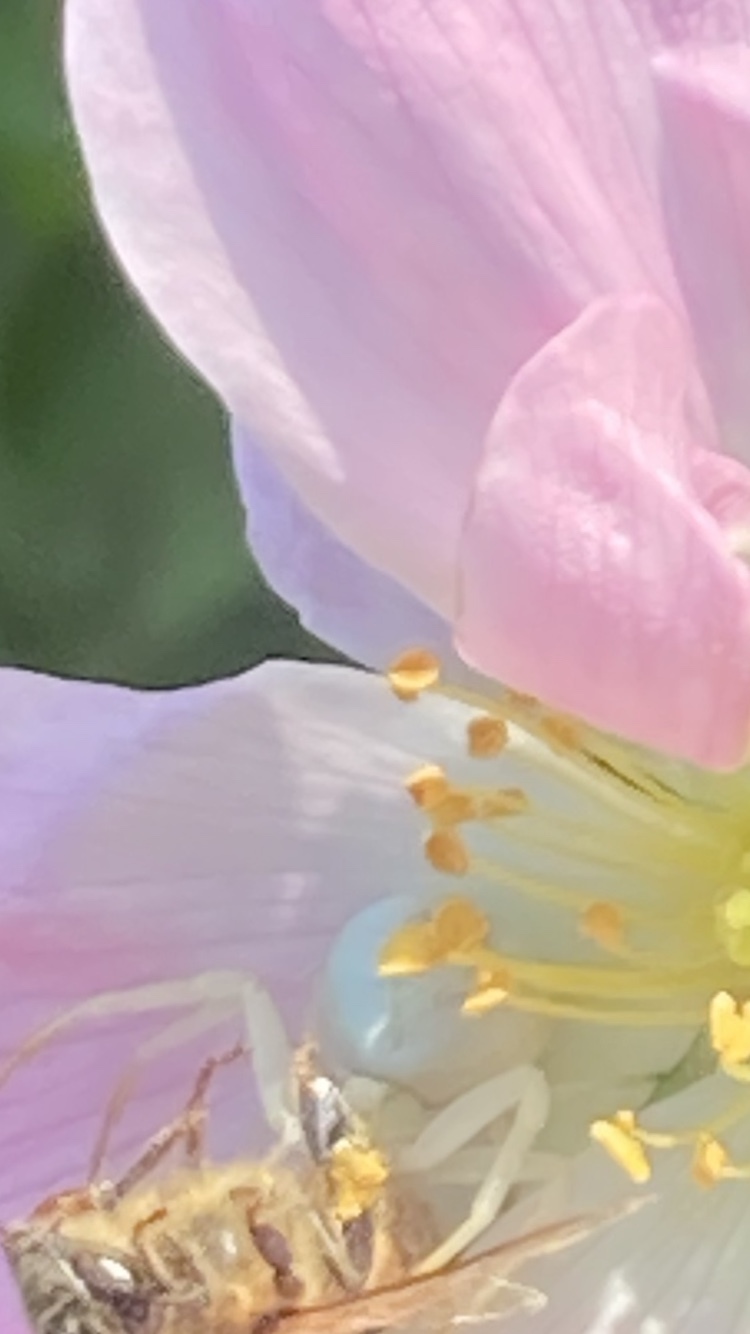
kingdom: Animalia
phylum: Arthropoda
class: Arachnida
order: Araneae
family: Thomisidae
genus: Misumena
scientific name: Misumena vatia
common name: Goldenrod crab spider
